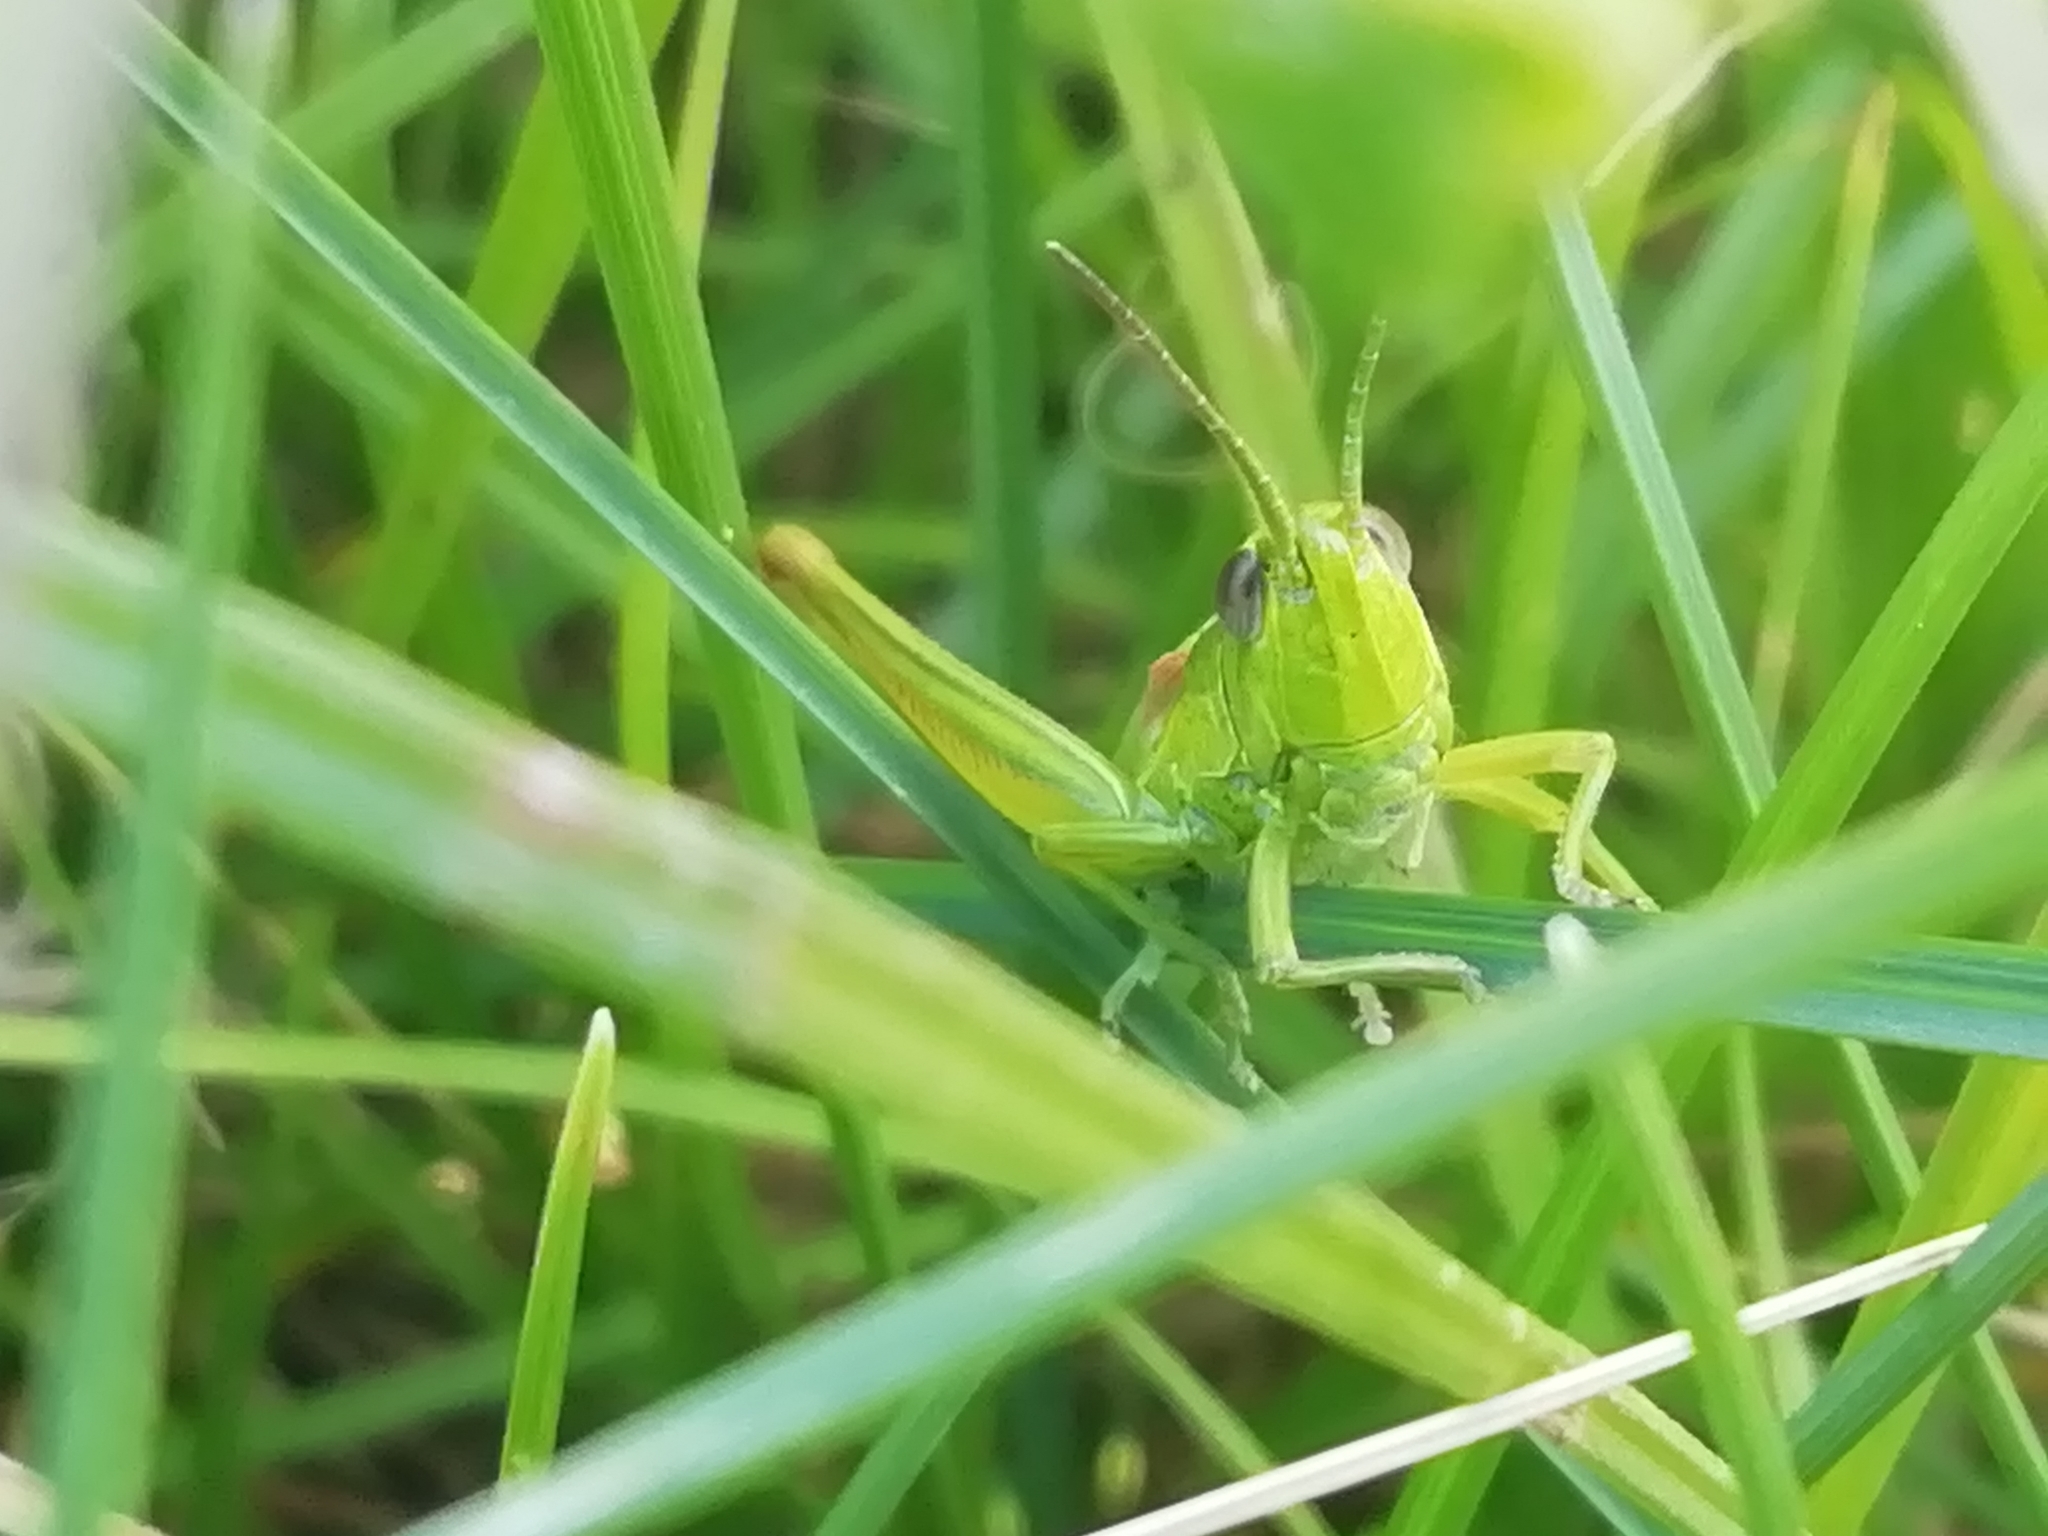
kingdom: Animalia
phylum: Arthropoda
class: Insecta
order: Orthoptera
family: Acrididae
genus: Euthystira
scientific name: Euthystira brachyptera
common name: Small gold grasshopper
